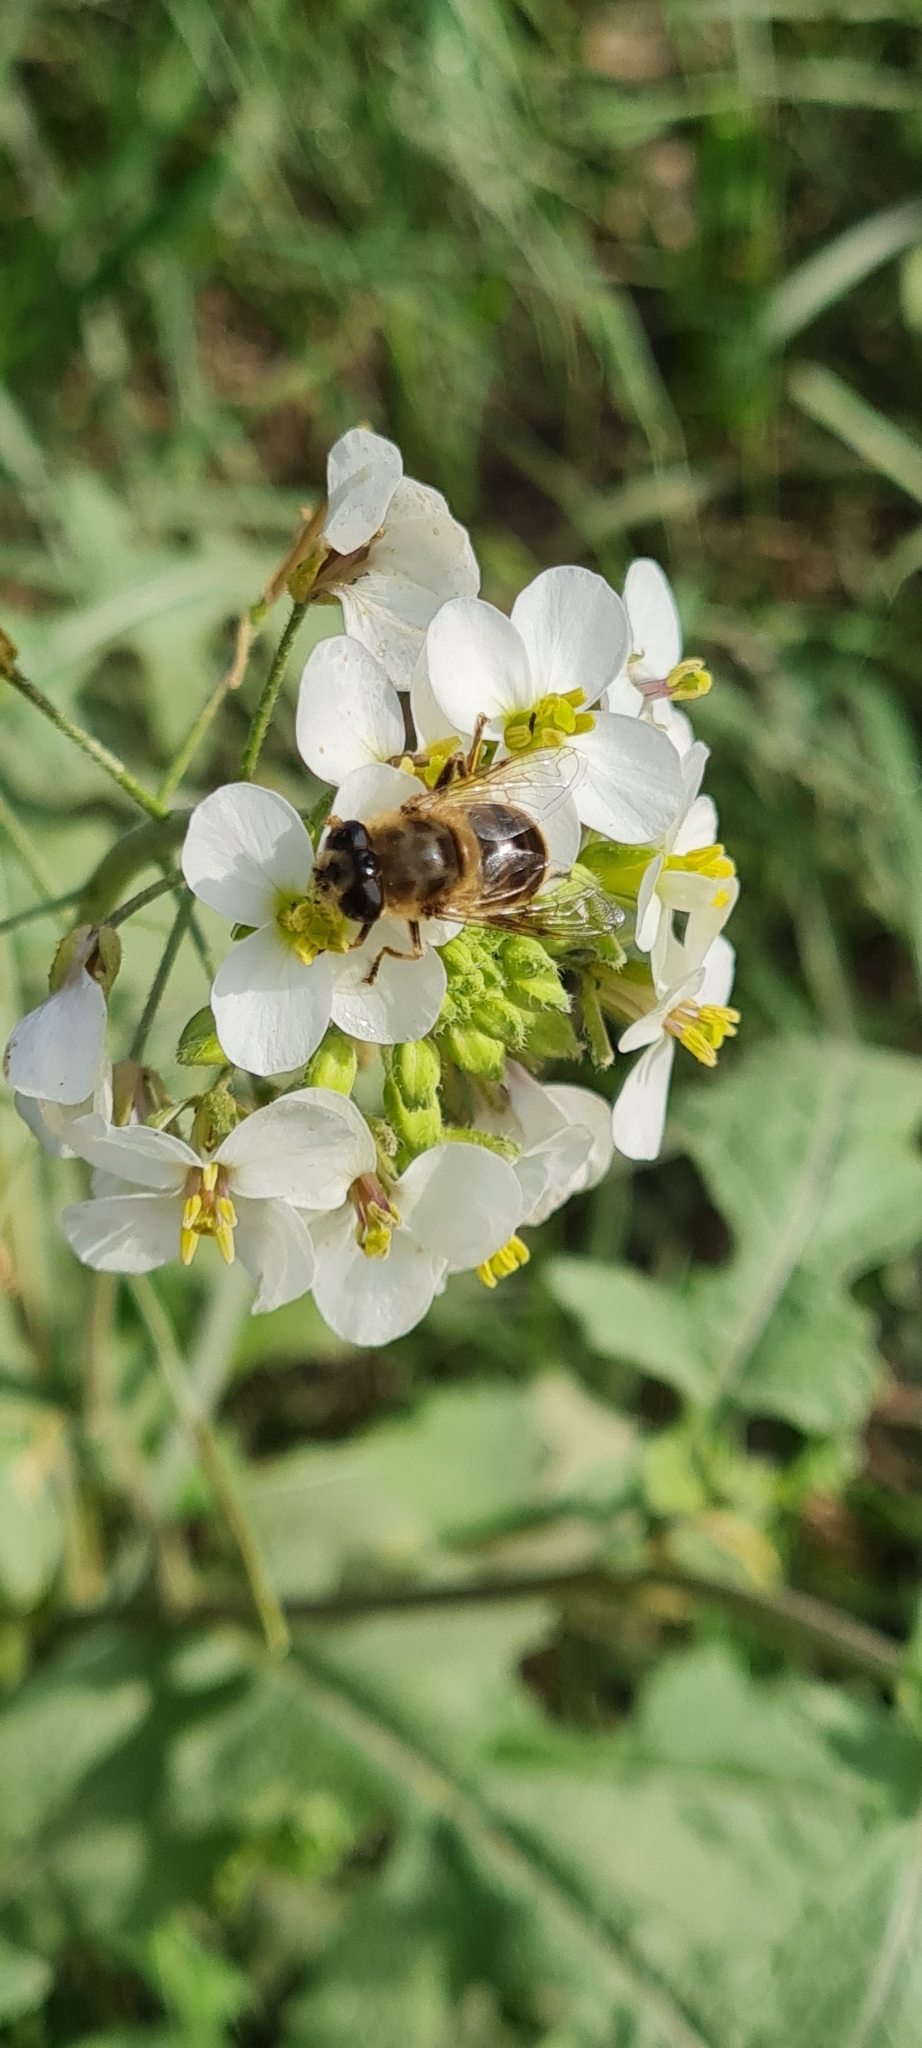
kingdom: Animalia
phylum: Arthropoda
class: Insecta
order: Diptera
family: Syrphidae
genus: Eristalis
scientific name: Eristalis tenax
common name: Drone fly
